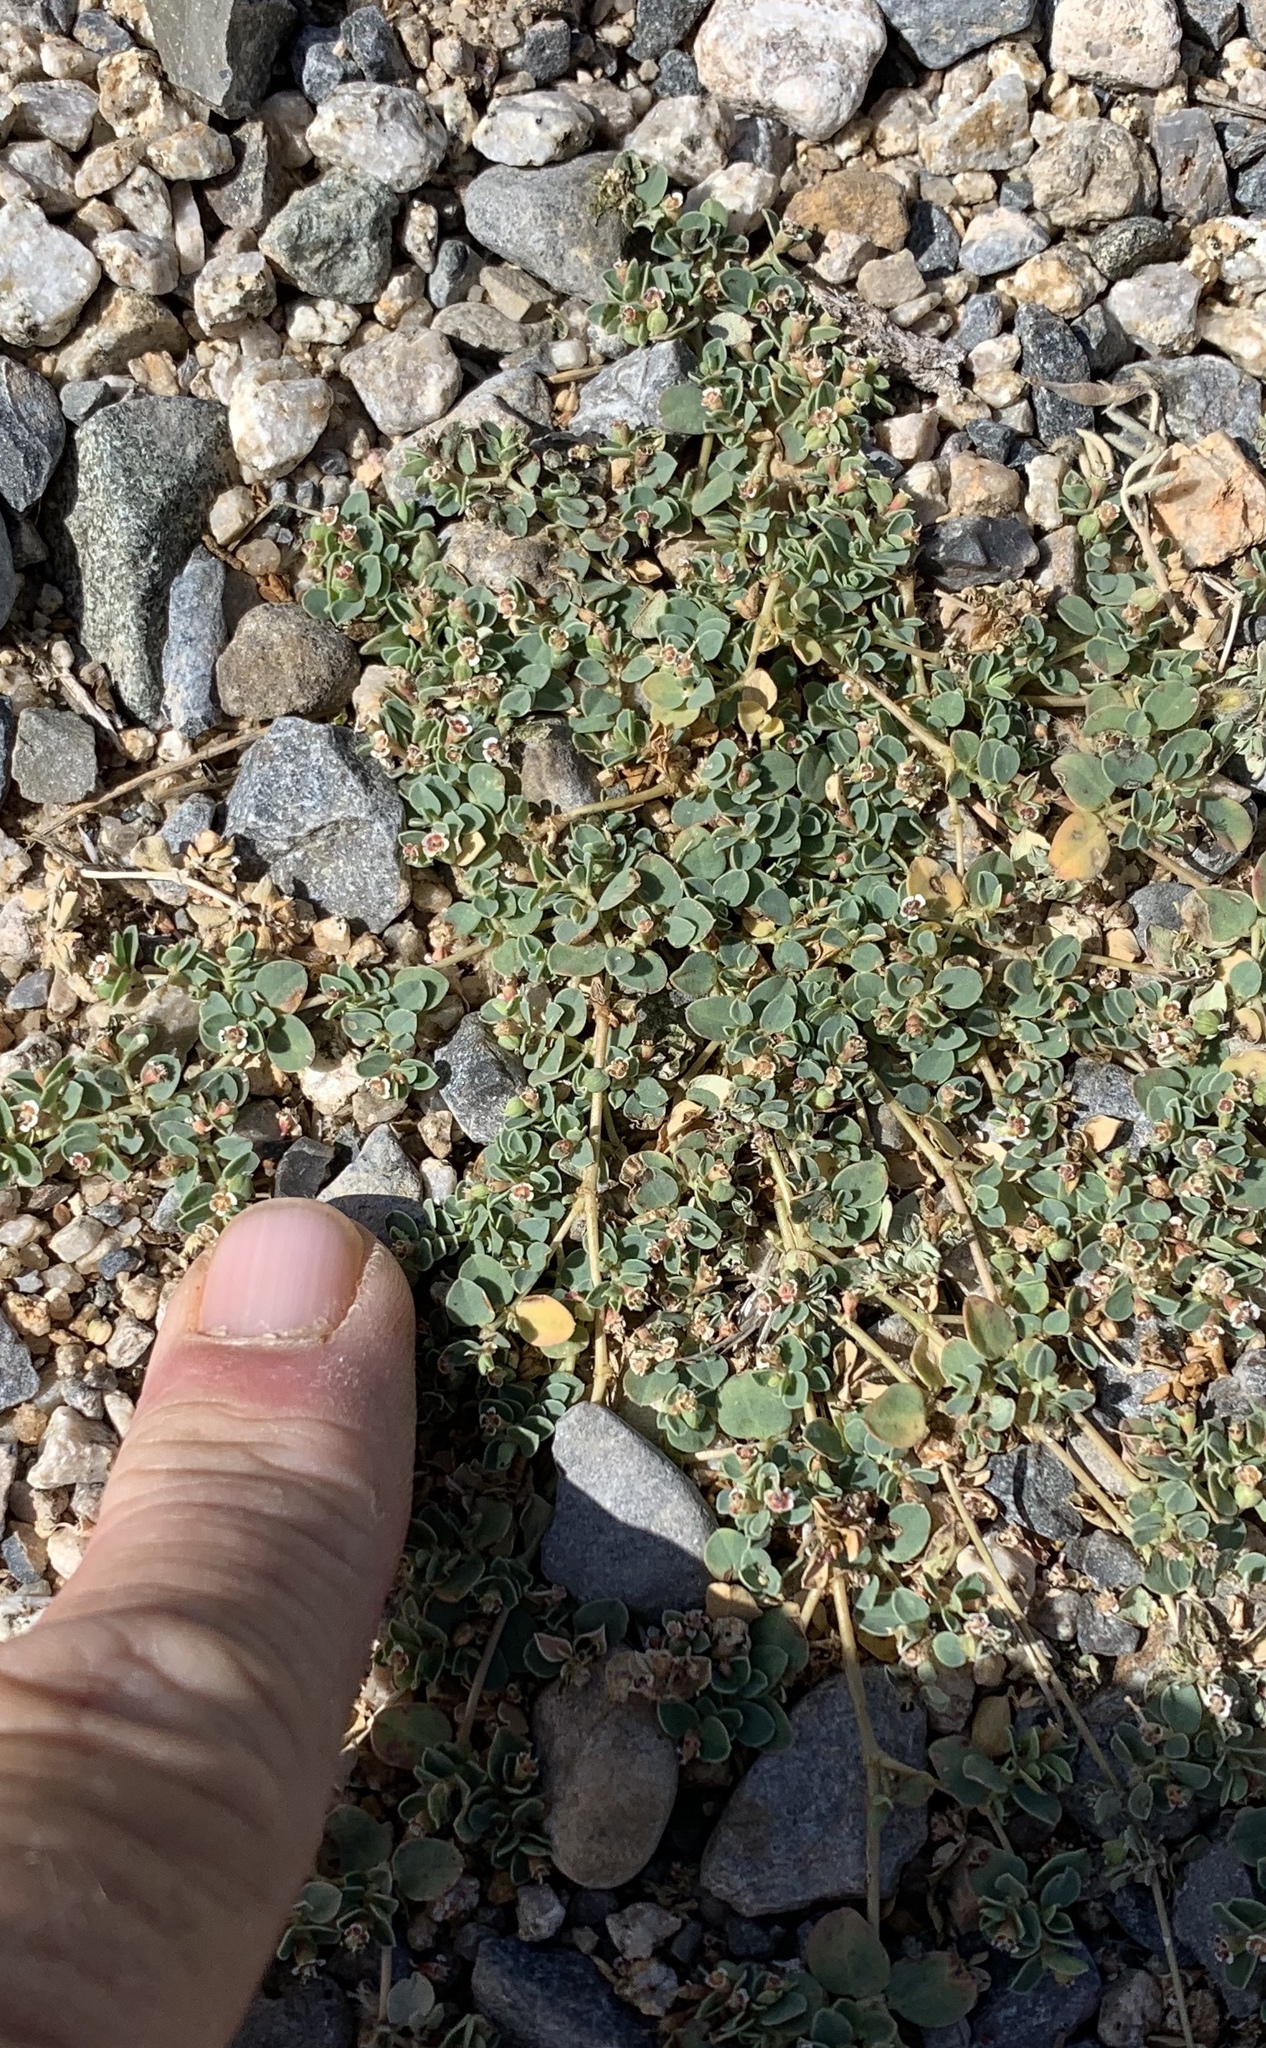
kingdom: Plantae
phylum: Tracheophyta
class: Magnoliopsida
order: Malpighiales
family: Euphorbiaceae
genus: Euphorbia
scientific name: Euphorbia albomarginata
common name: Whitemargin sandmat
